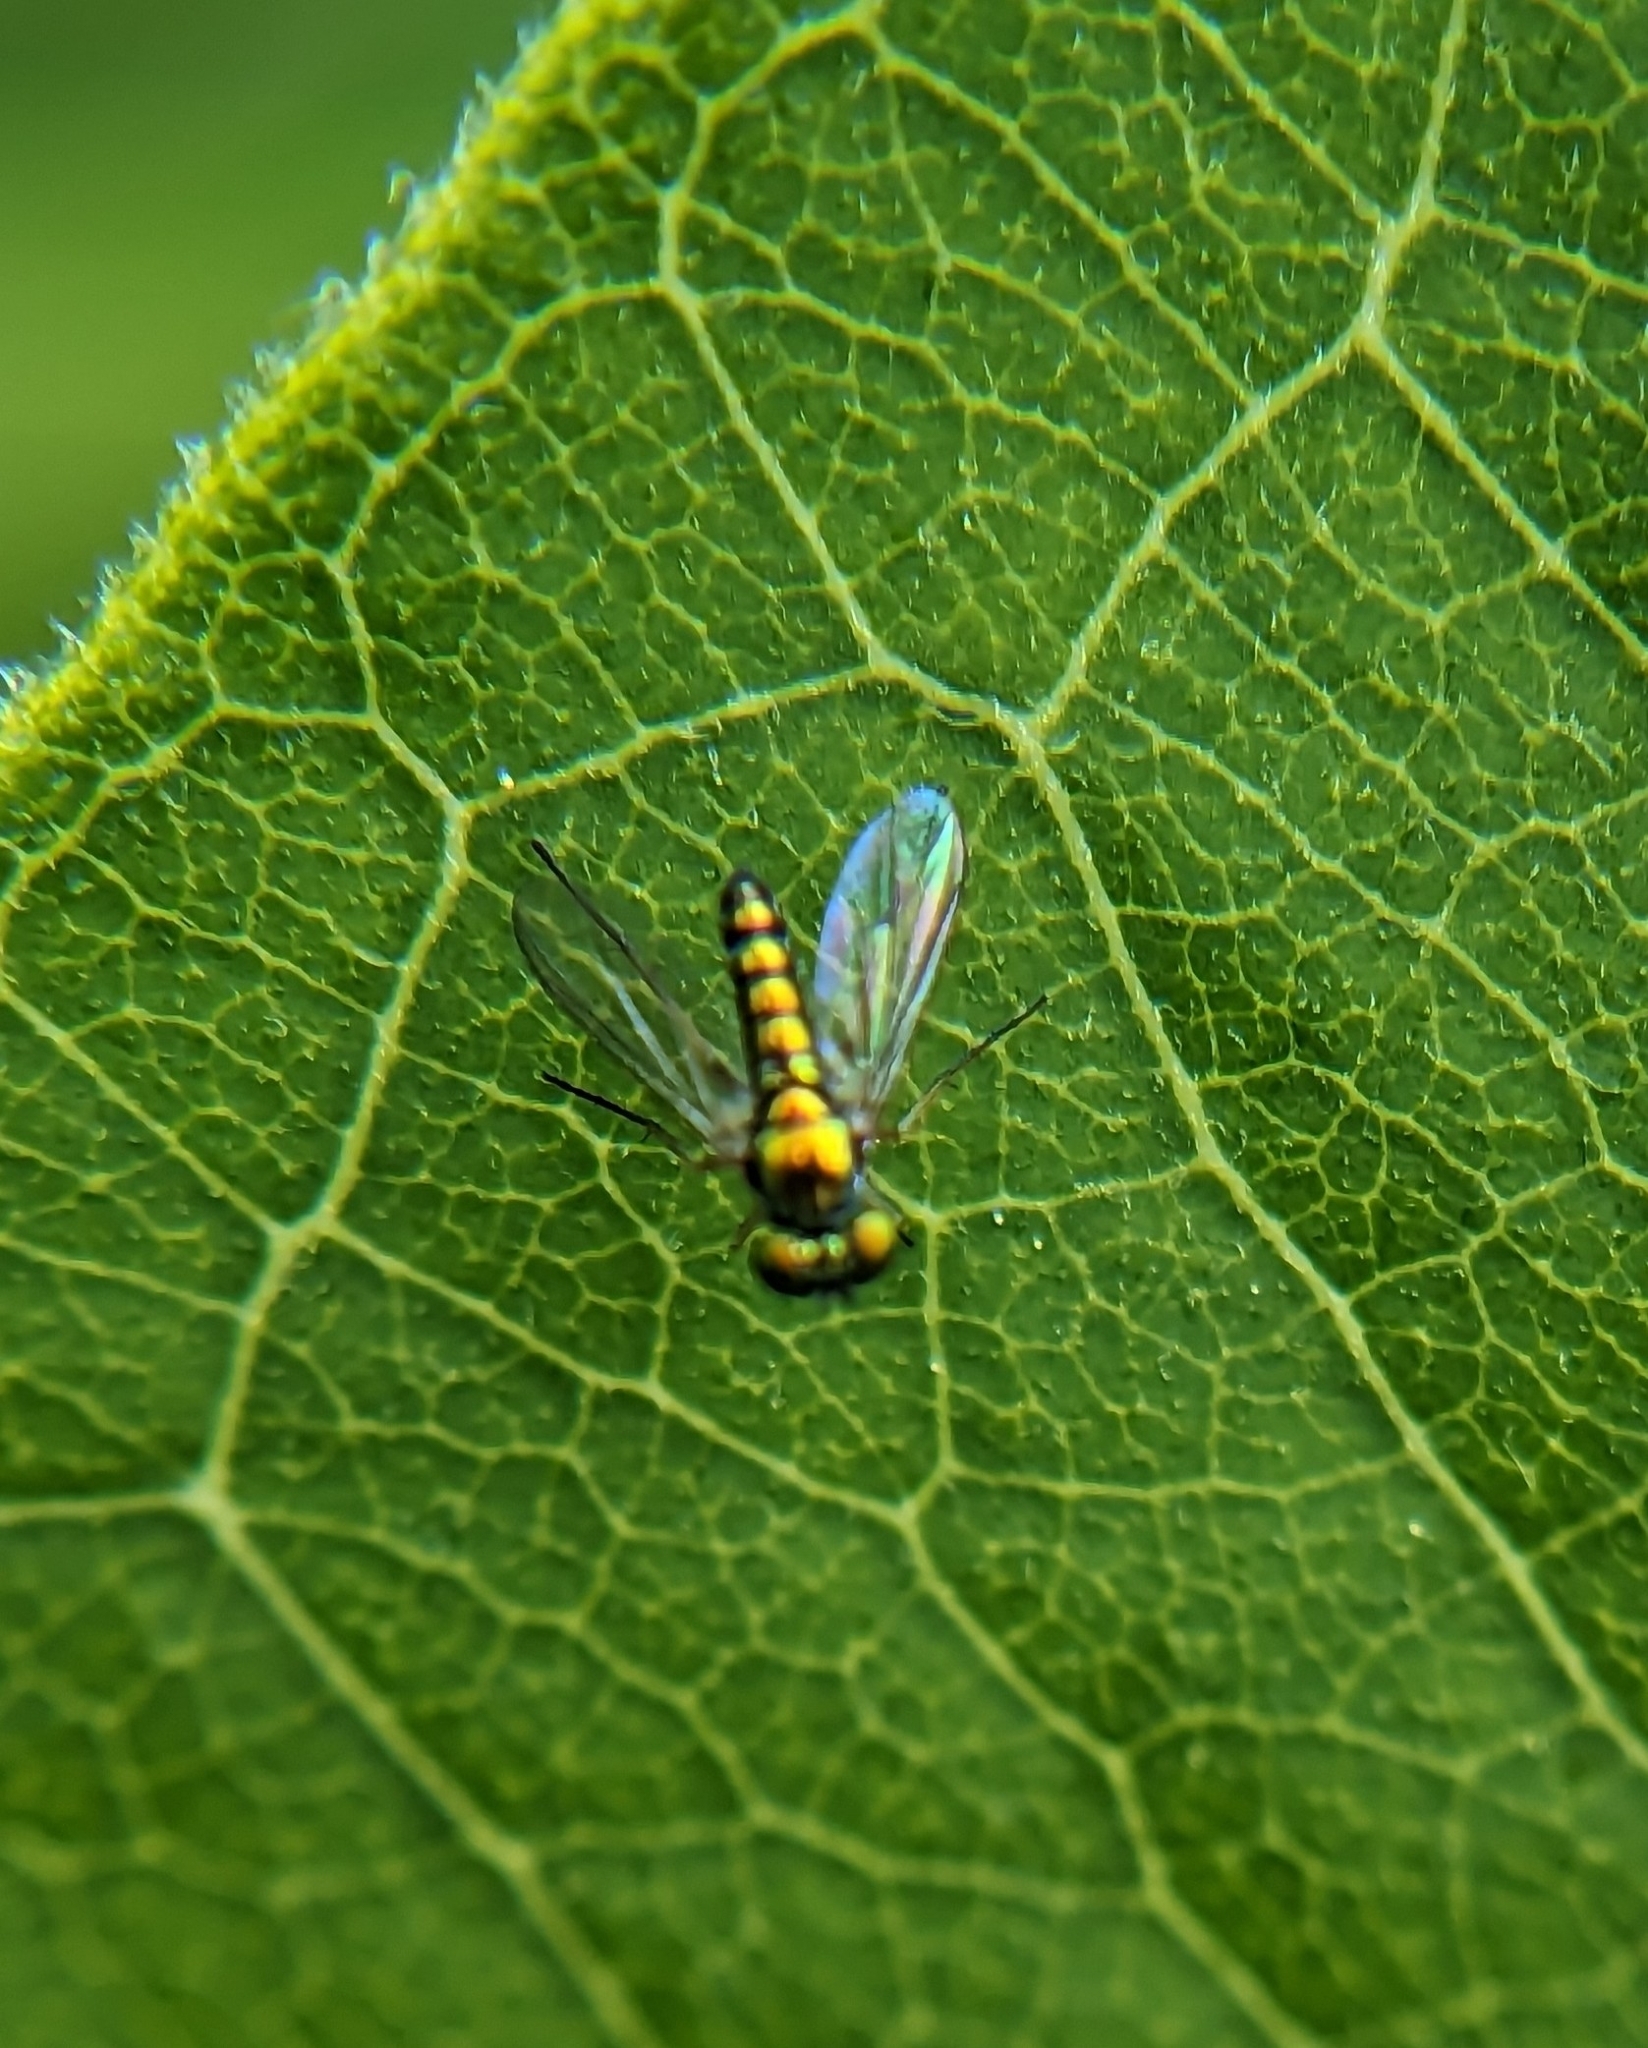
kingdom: Animalia
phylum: Arthropoda
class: Insecta
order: Diptera
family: Dolichopodidae
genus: Condylostylus
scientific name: Condylostylus flavipes
